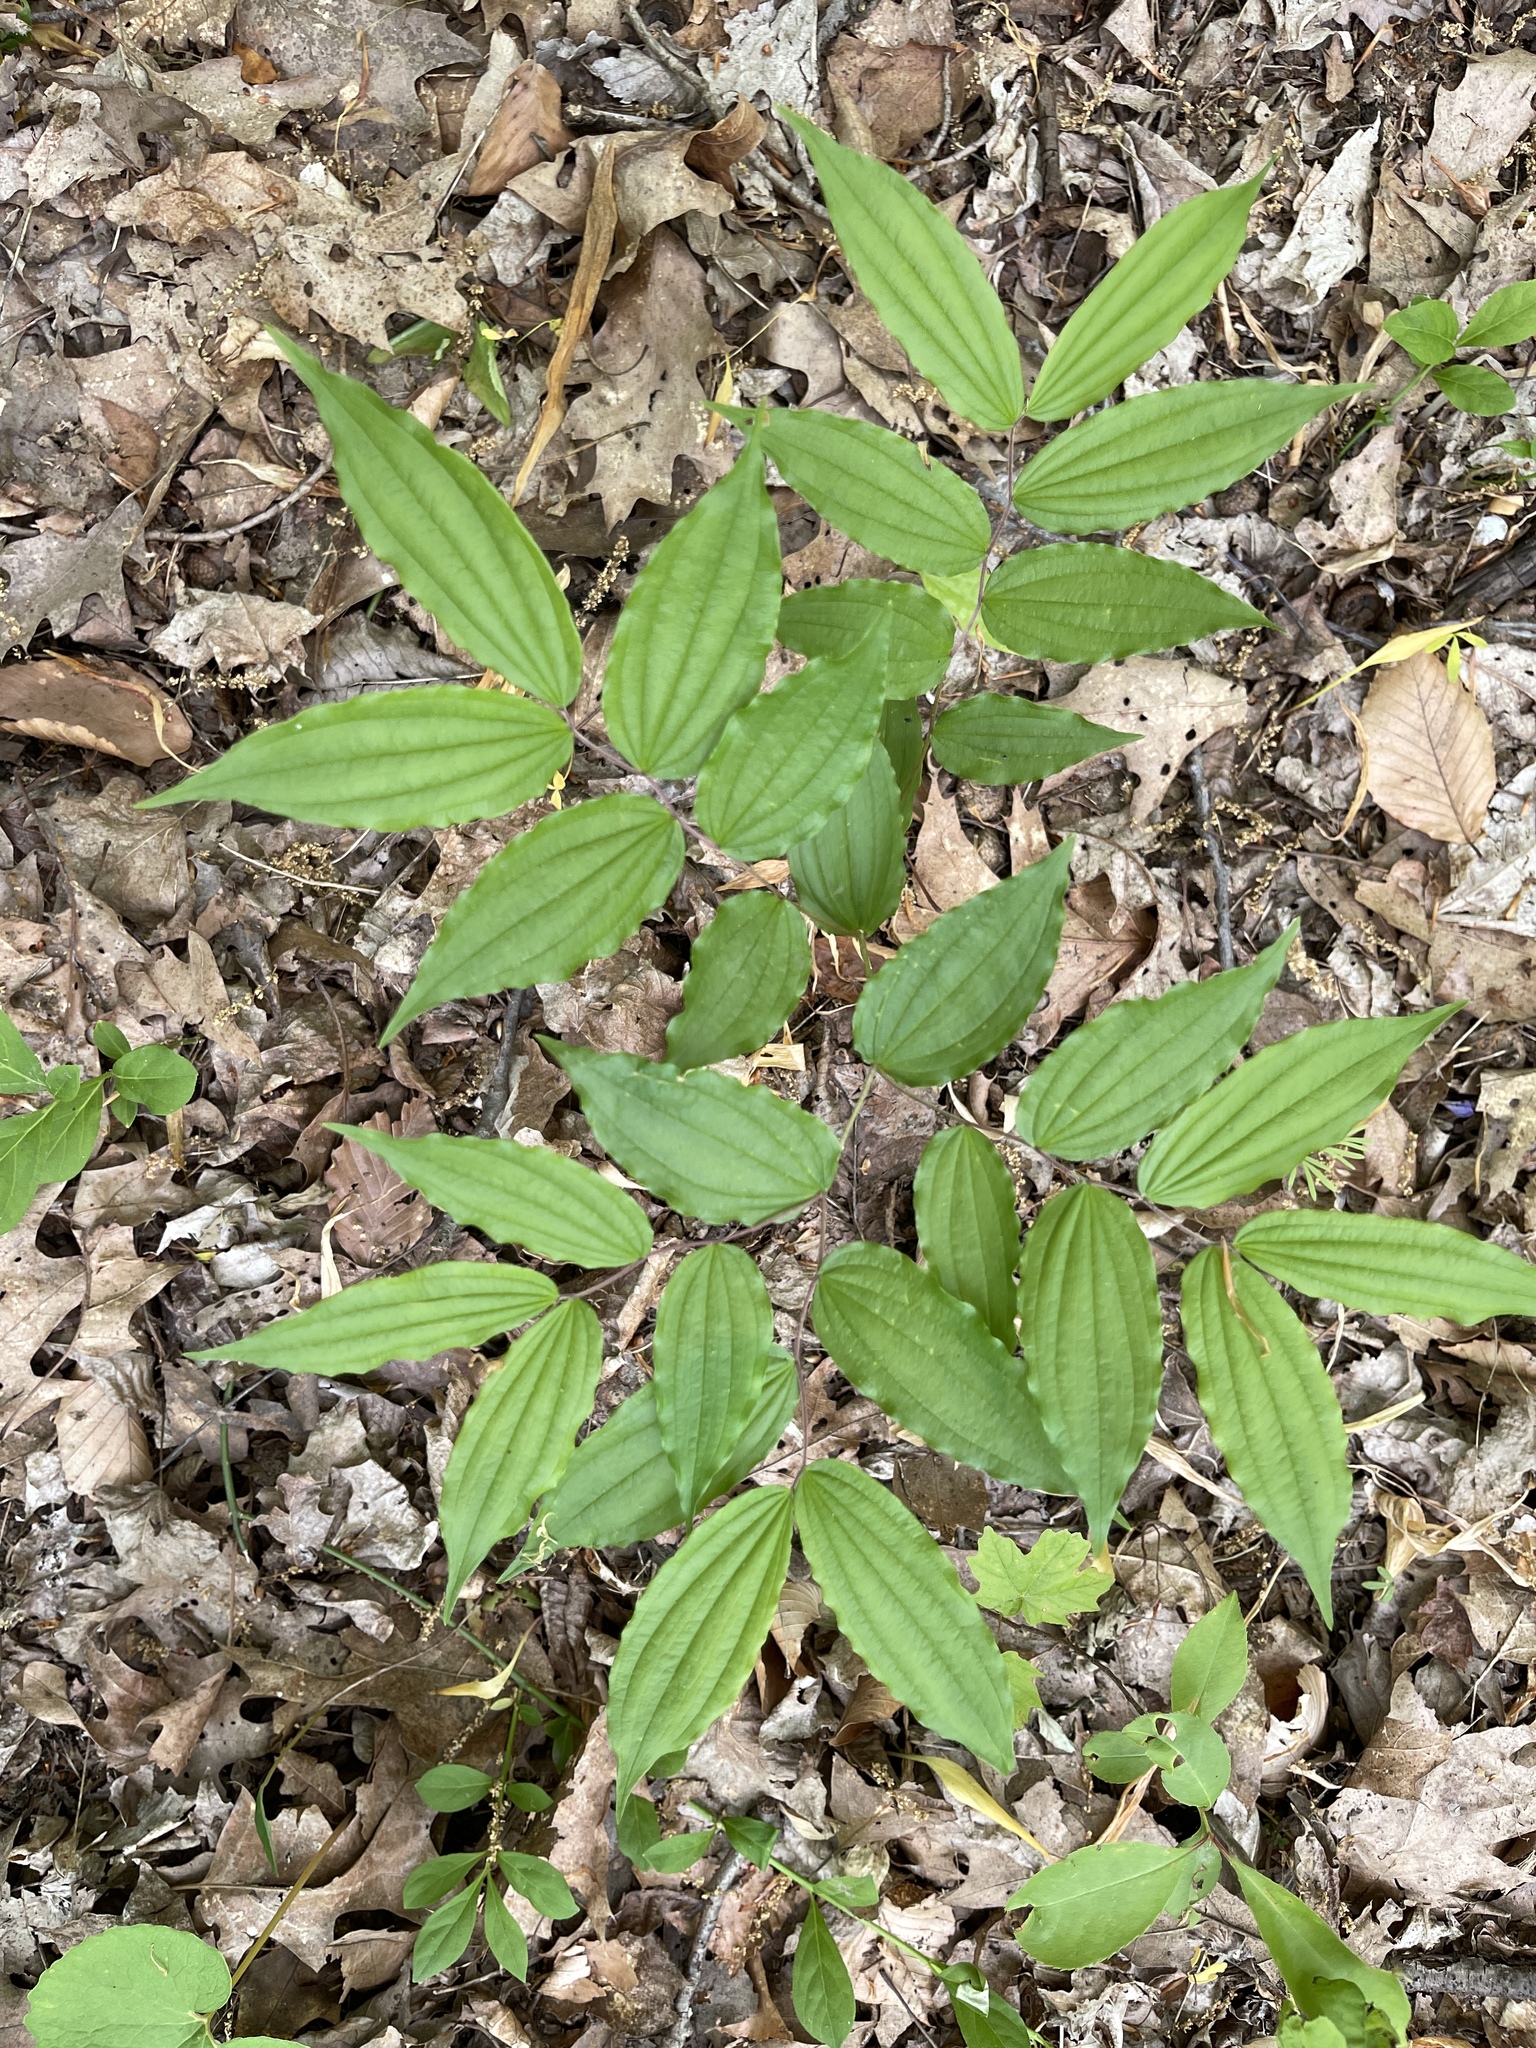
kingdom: Plantae
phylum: Tracheophyta
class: Liliopsida
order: Liliales
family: Liliaceae
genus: Prosartes
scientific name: Prosartes lanuginosa
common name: Hairy mandarin
